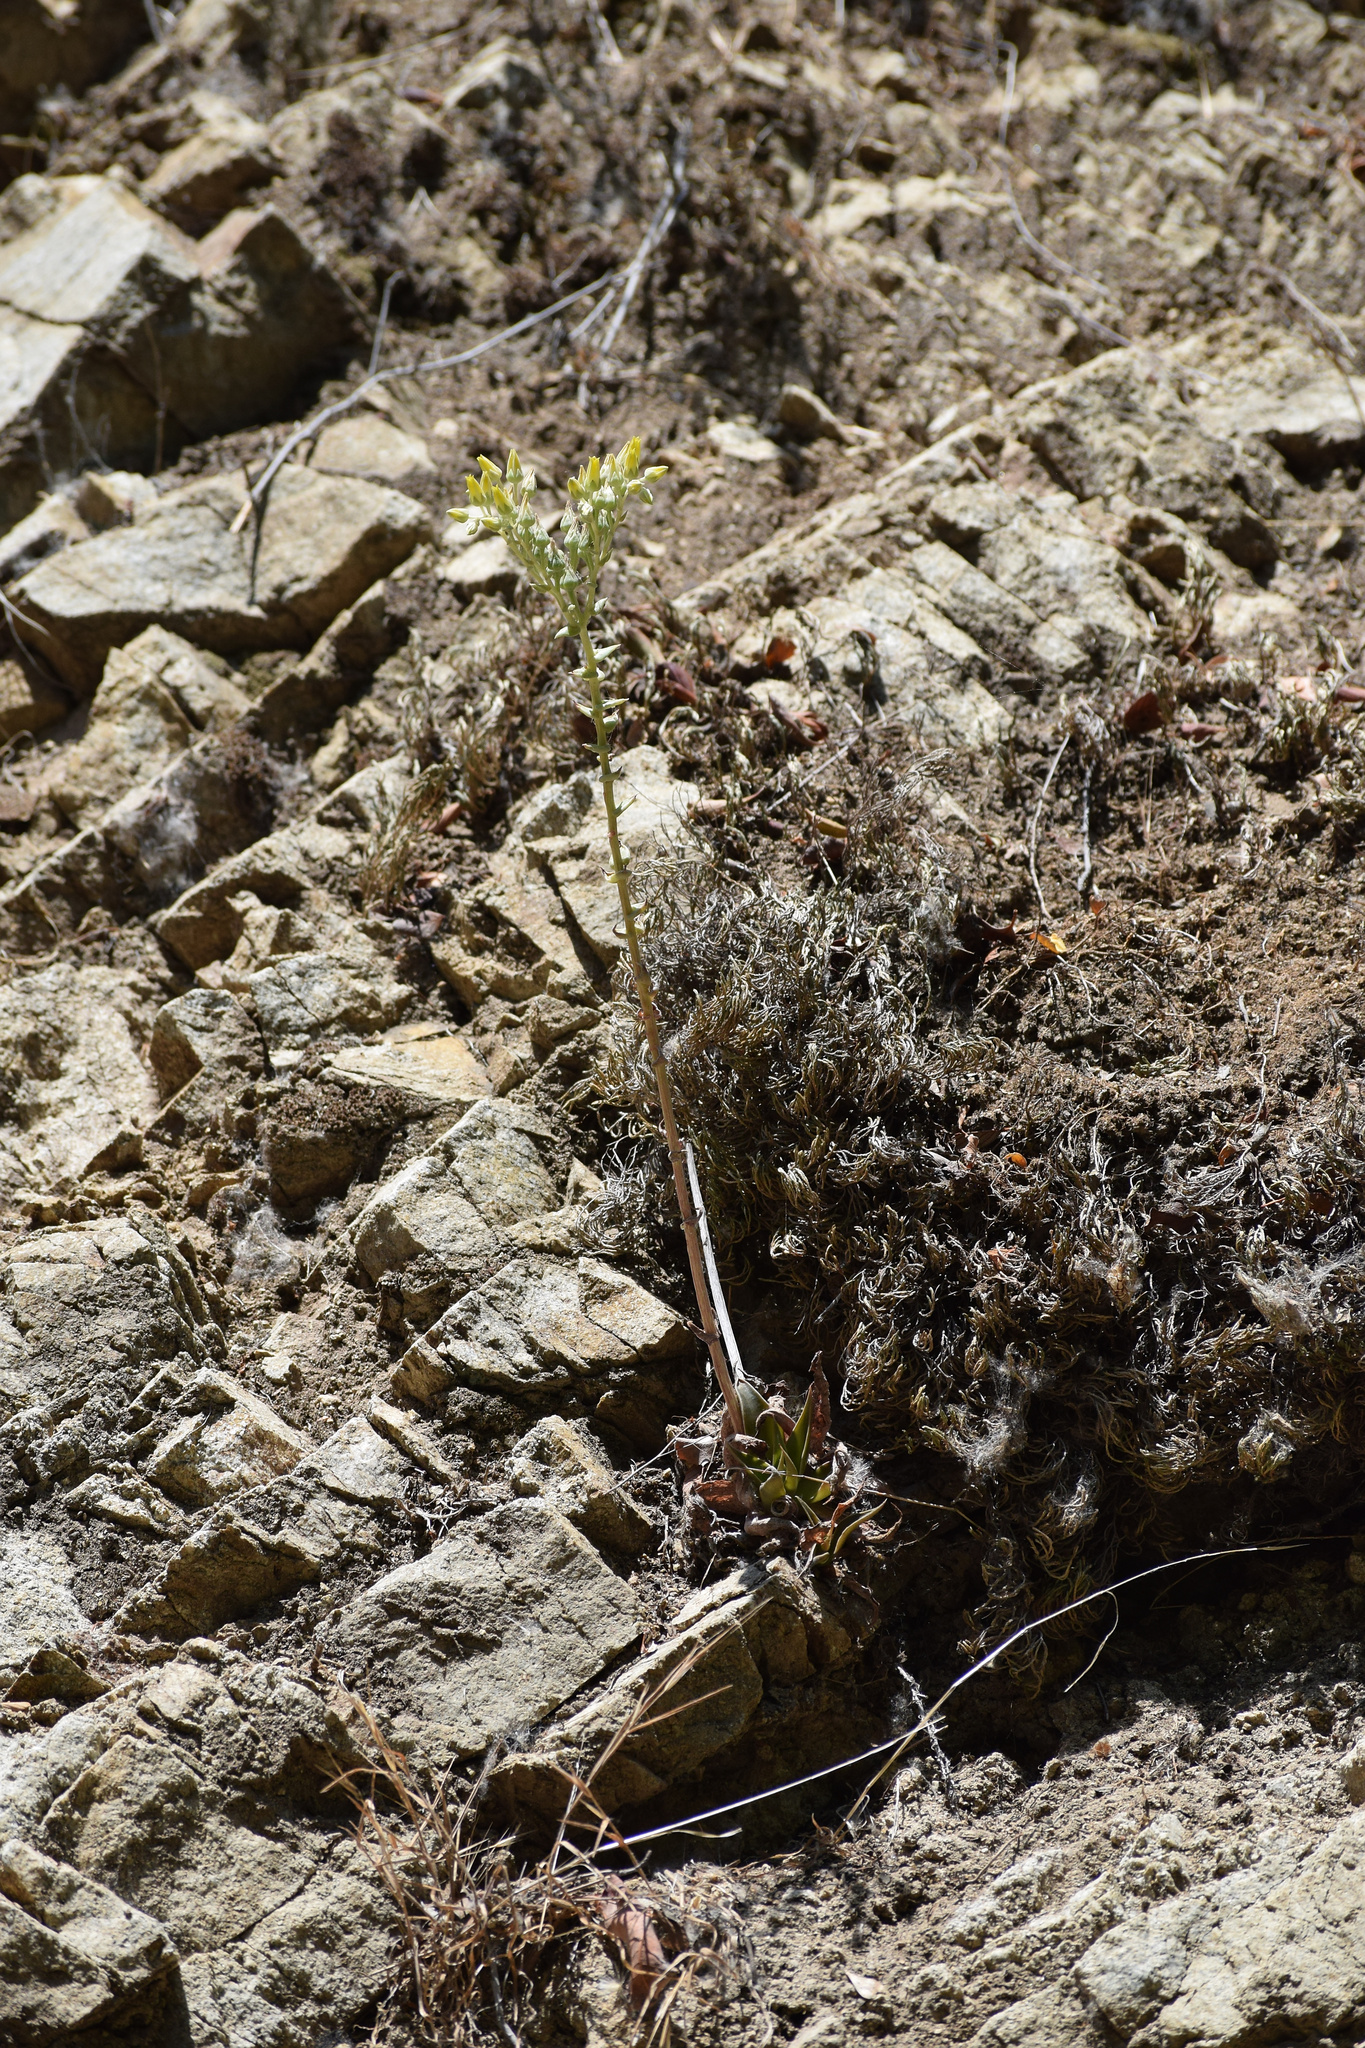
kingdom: Plantae
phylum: Tracheophyta
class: Magnoliopsida
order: Saxifragales
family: Crassulaceae
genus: Dudleya
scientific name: Dudleya lanceolata
